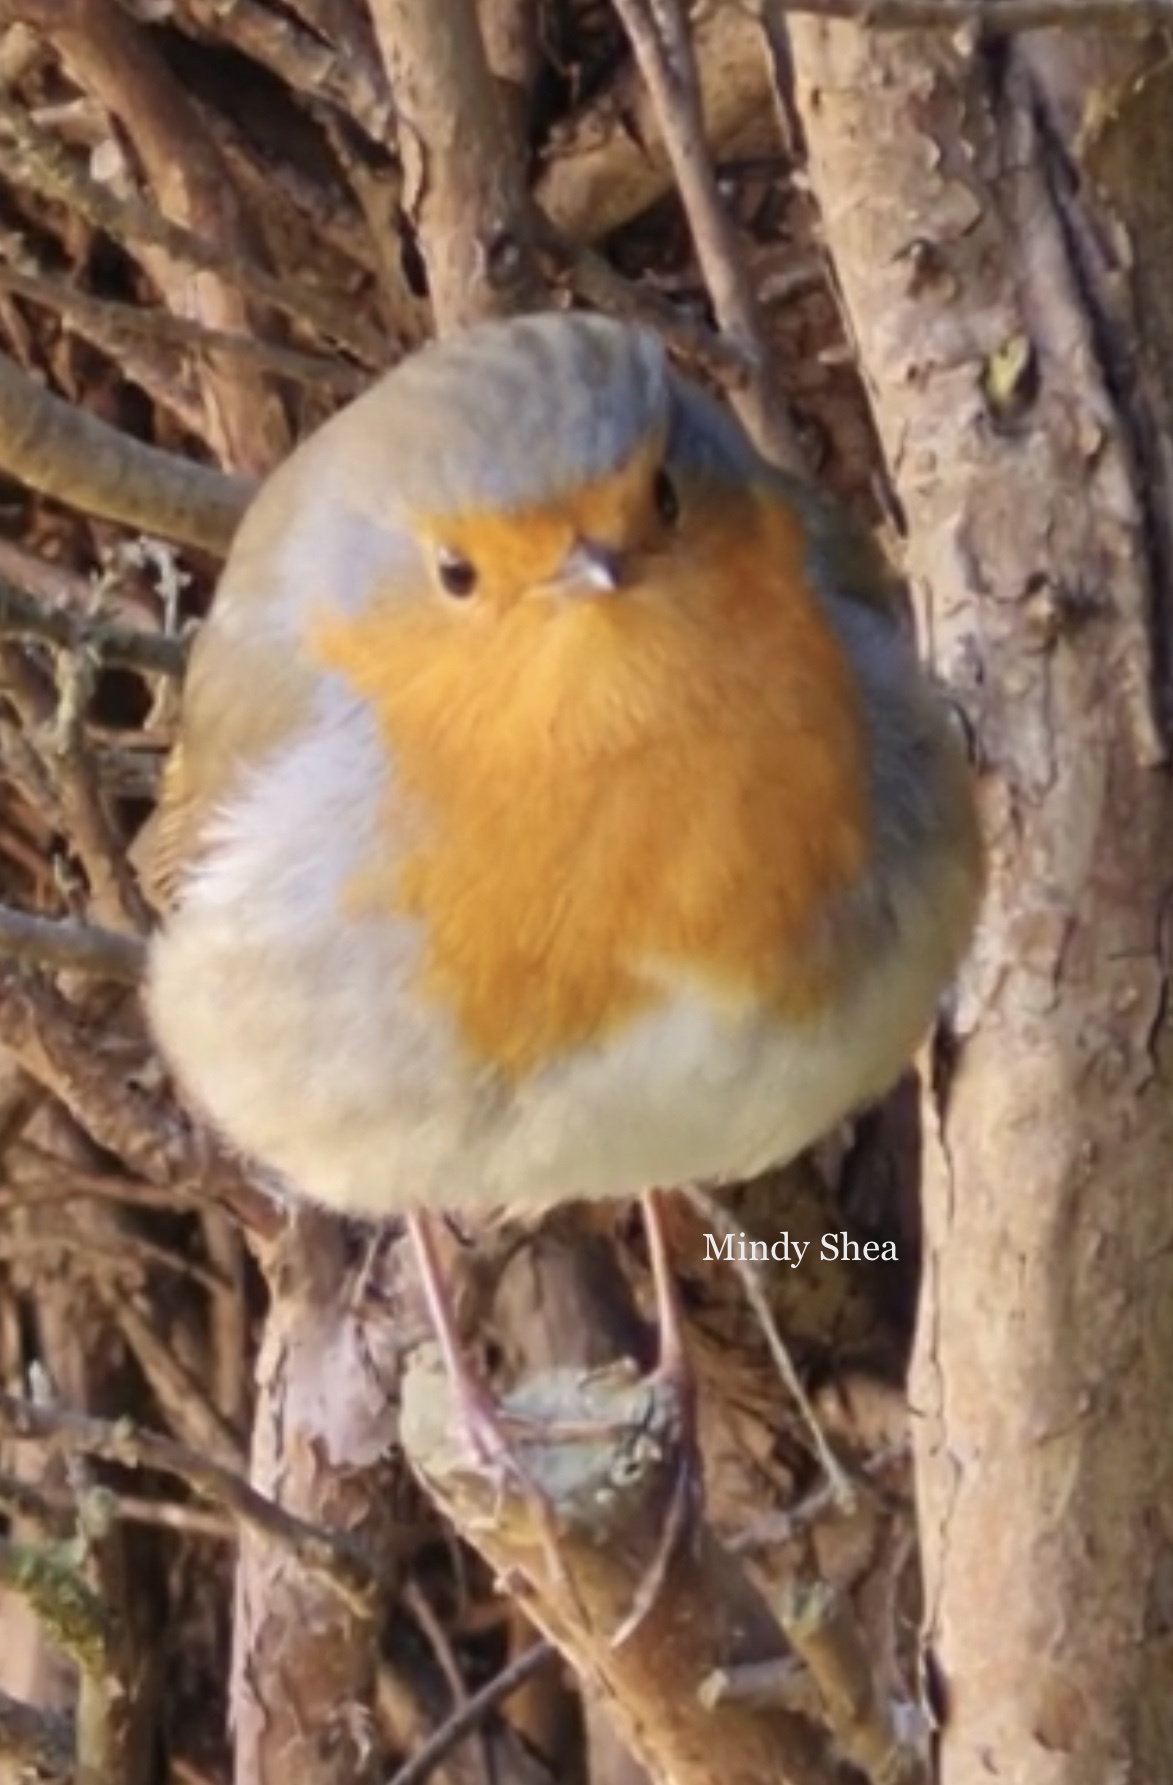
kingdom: Animalia
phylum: Chordata
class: Aves
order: Passeriformes
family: Muscicapidae
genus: Erithacus
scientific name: Erithacus rubecula
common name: European robin
